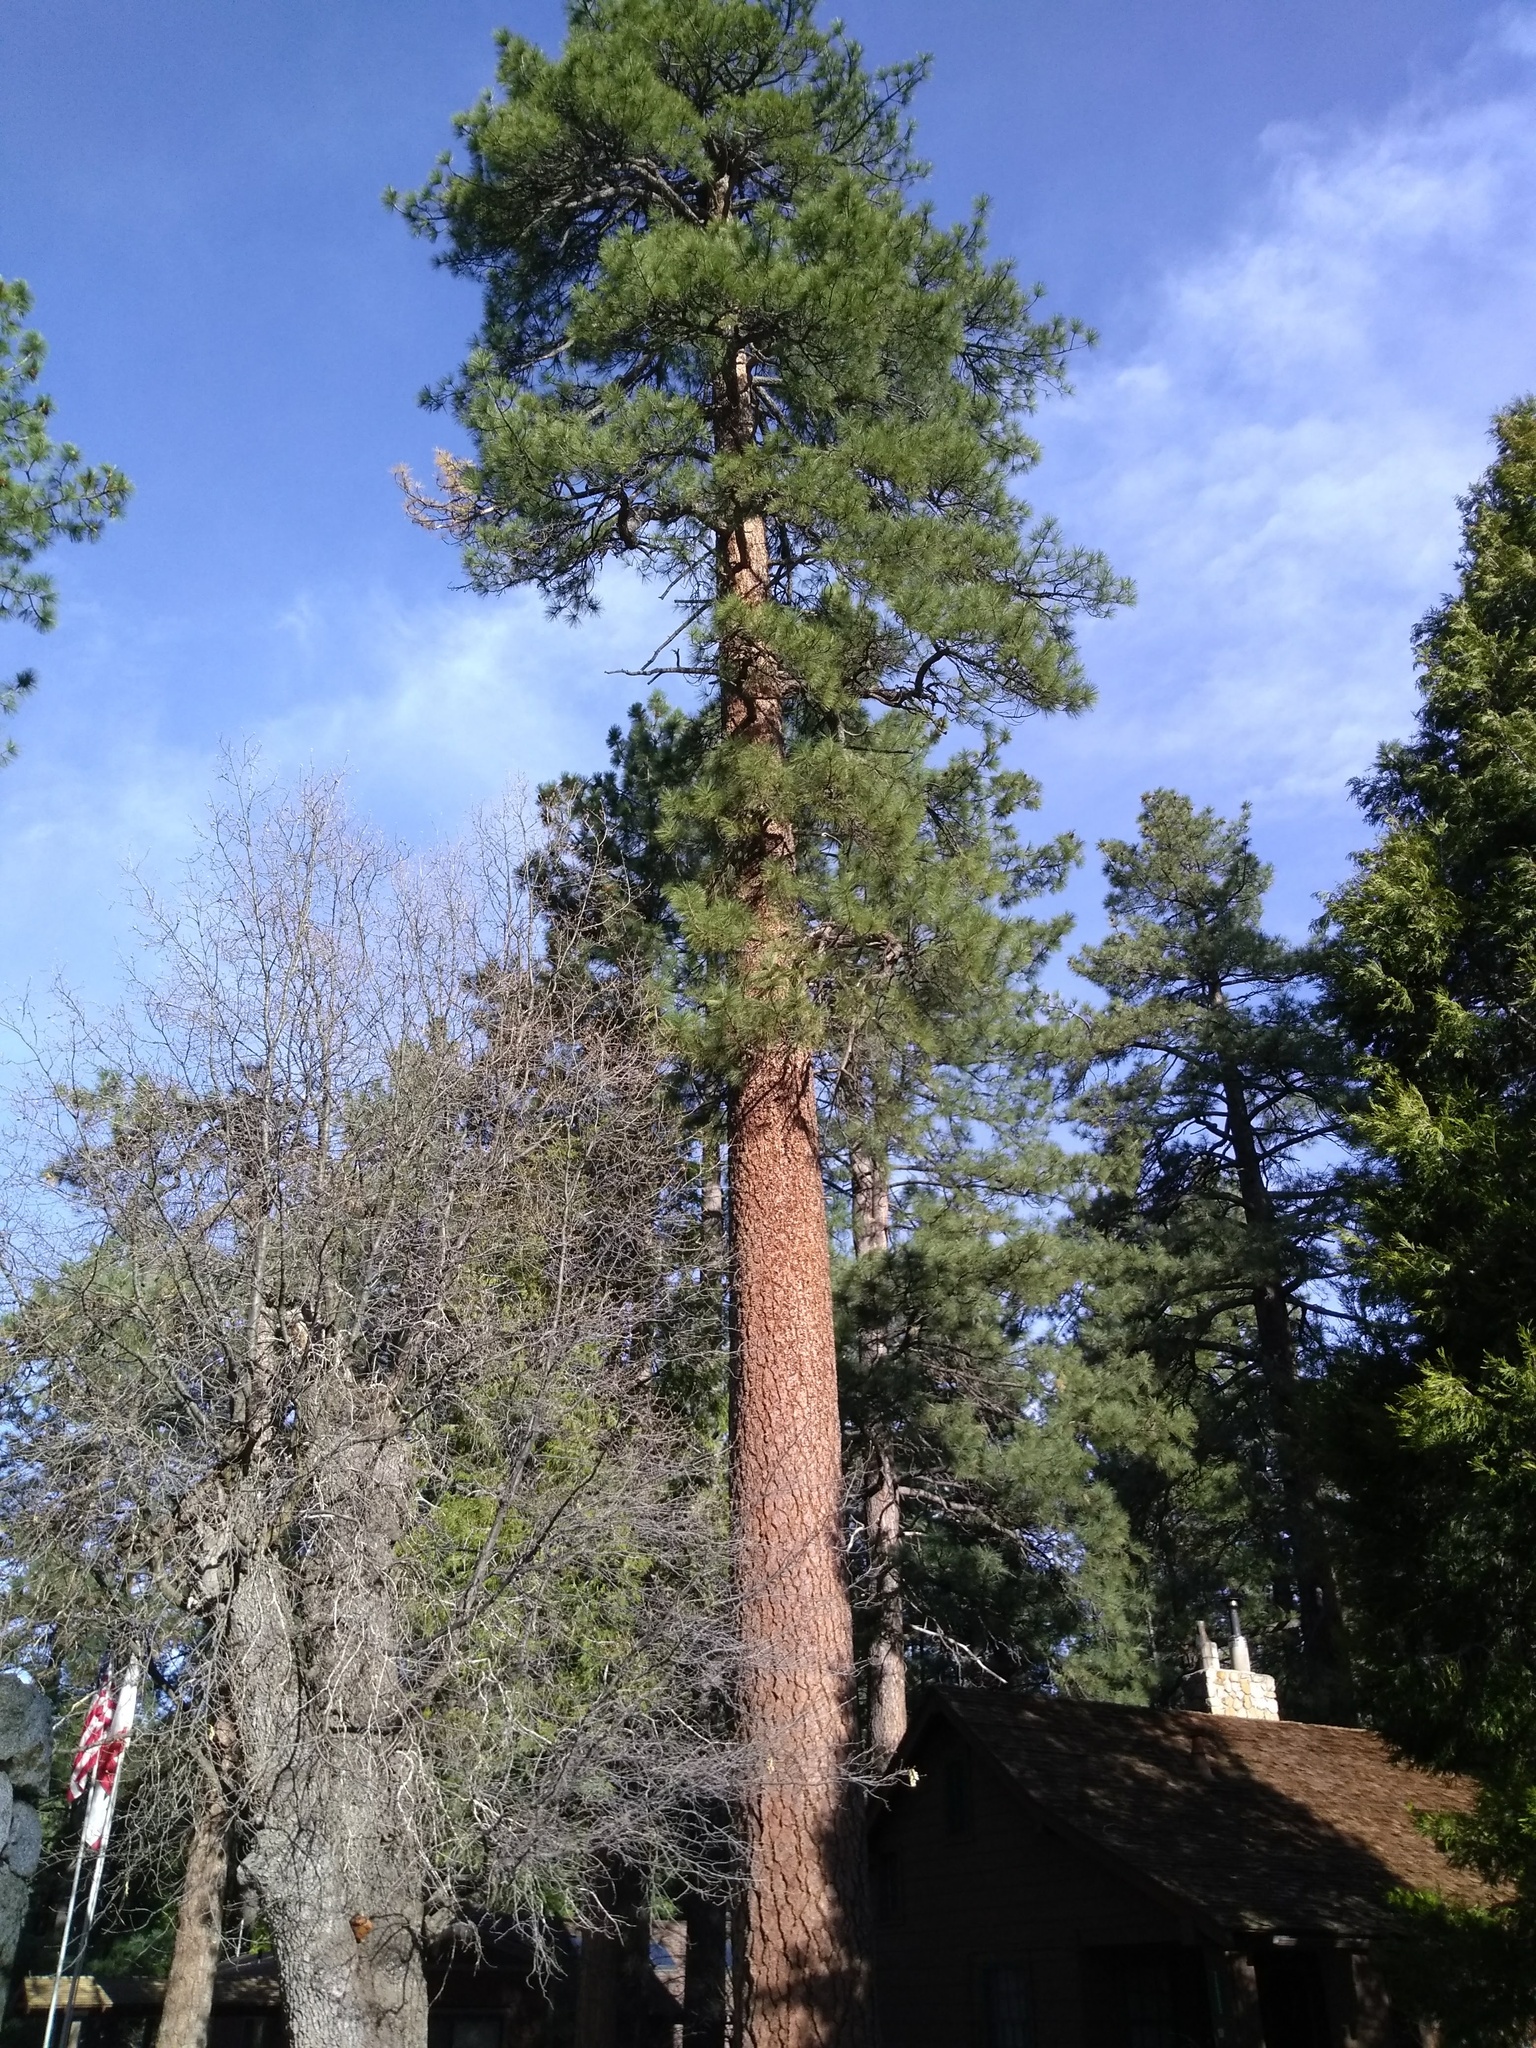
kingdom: Plantae
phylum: Tracheophyta
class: Pinopsida
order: Pinales
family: Pinaceae
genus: Pinus
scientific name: Pinus jeffreyi
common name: Jeffrey pine
